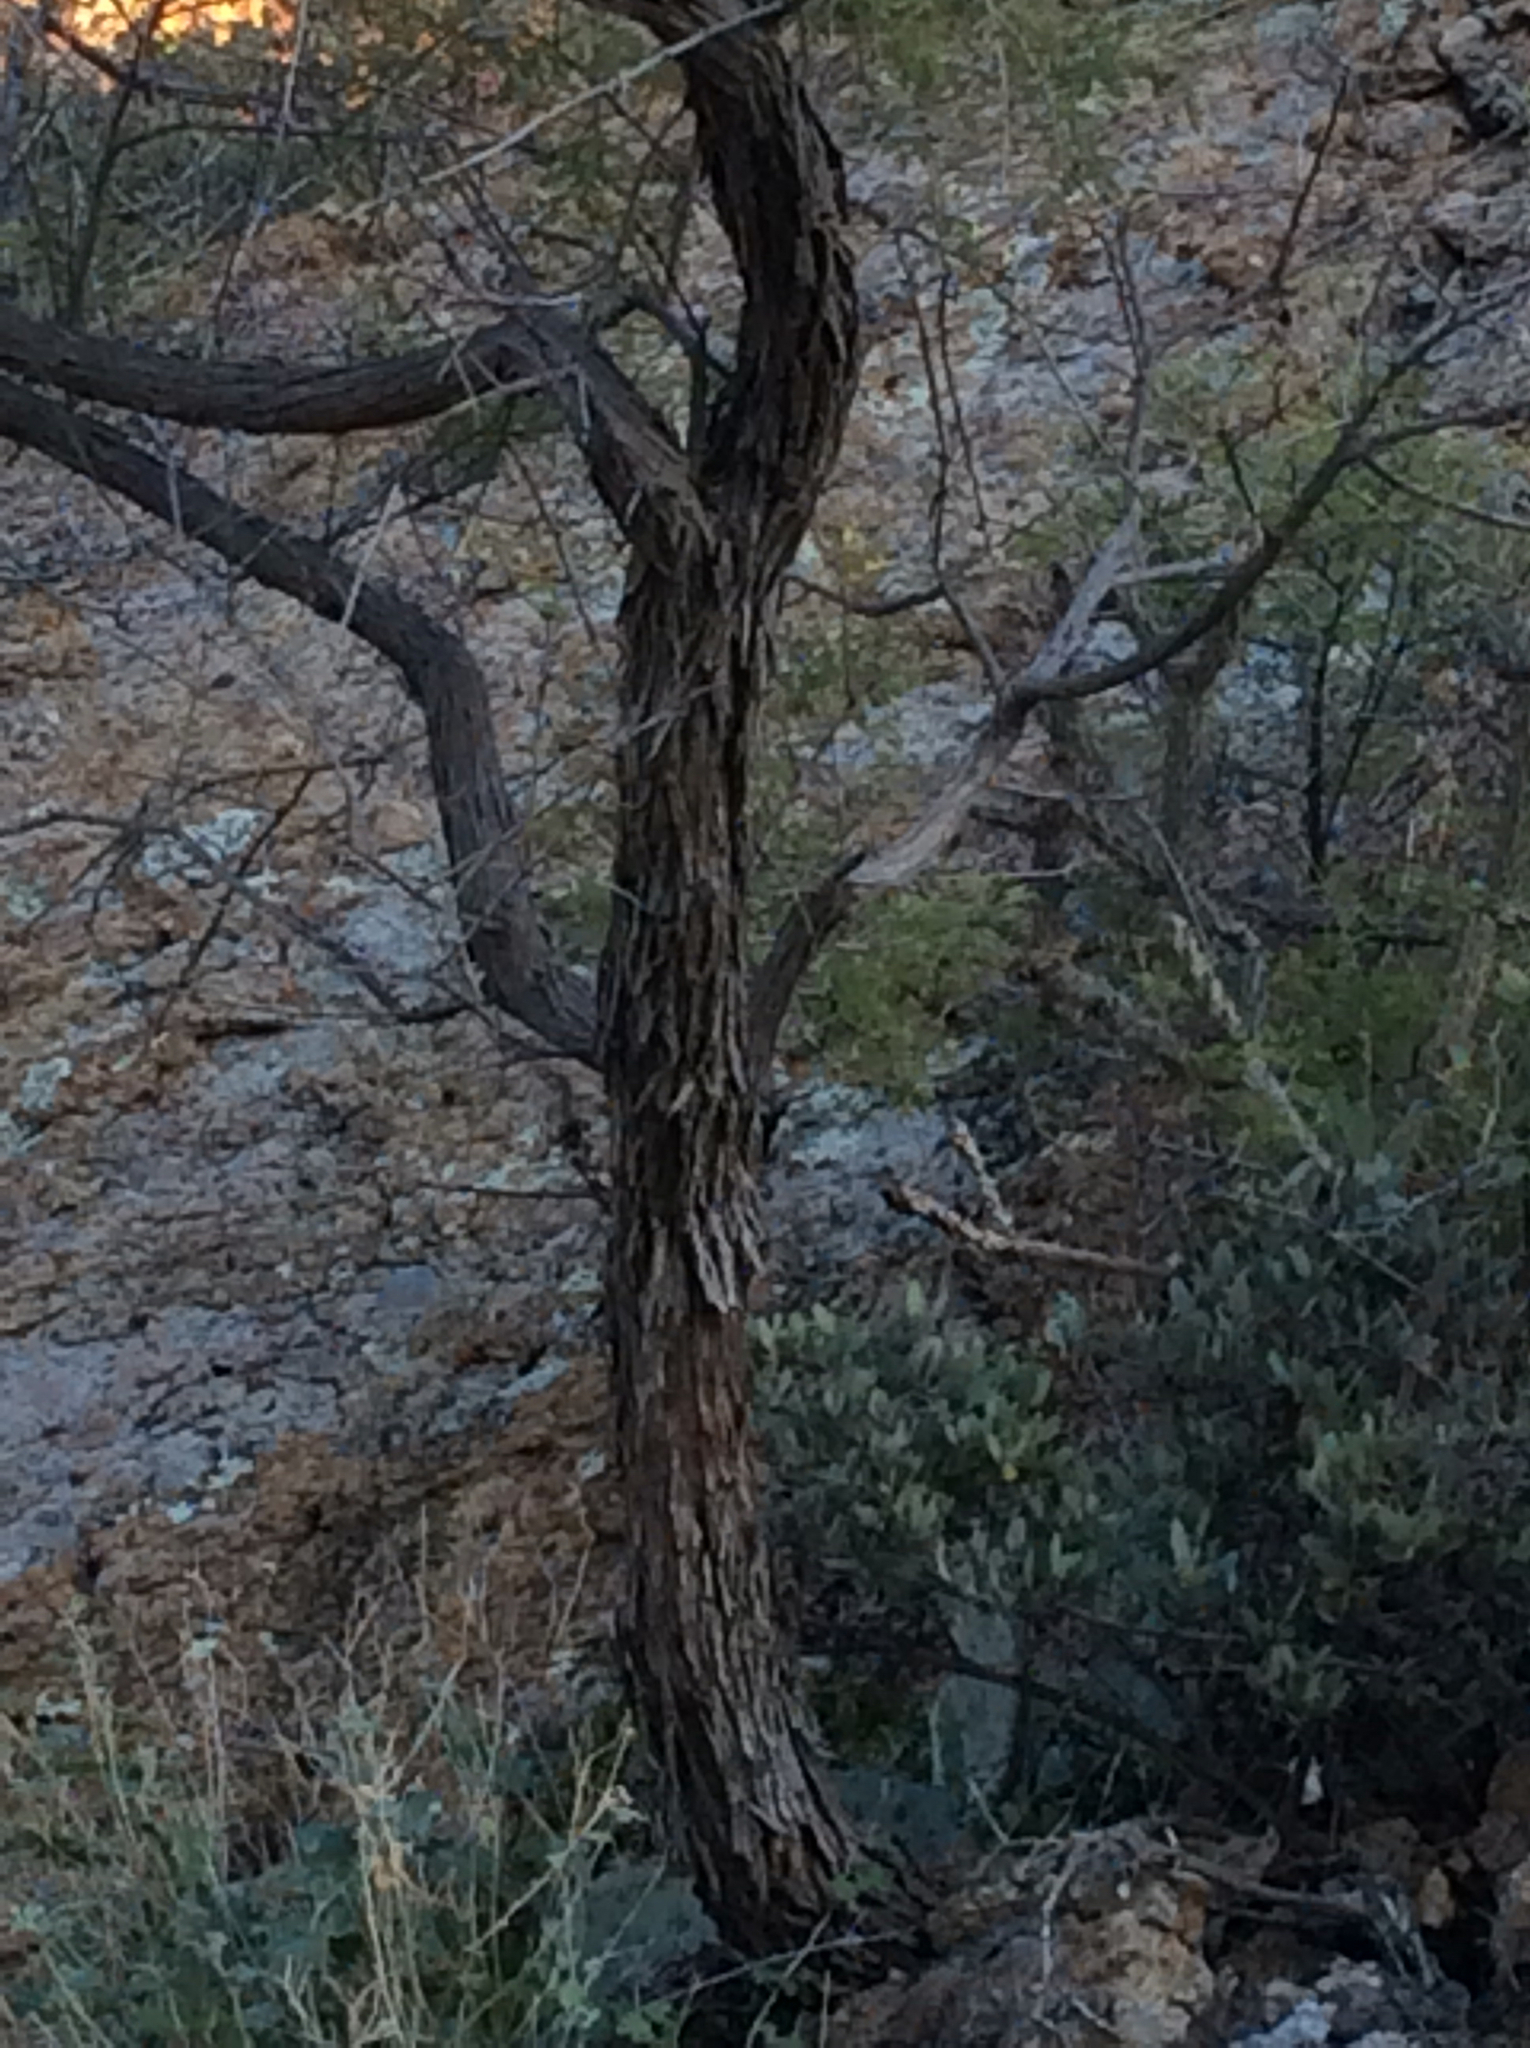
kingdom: Plantae
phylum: Tracheophyta
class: Magnoliopsida
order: Fabales
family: Fabaceae
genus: Vachellia
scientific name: Vachellia constricta
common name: Mescat acacia
